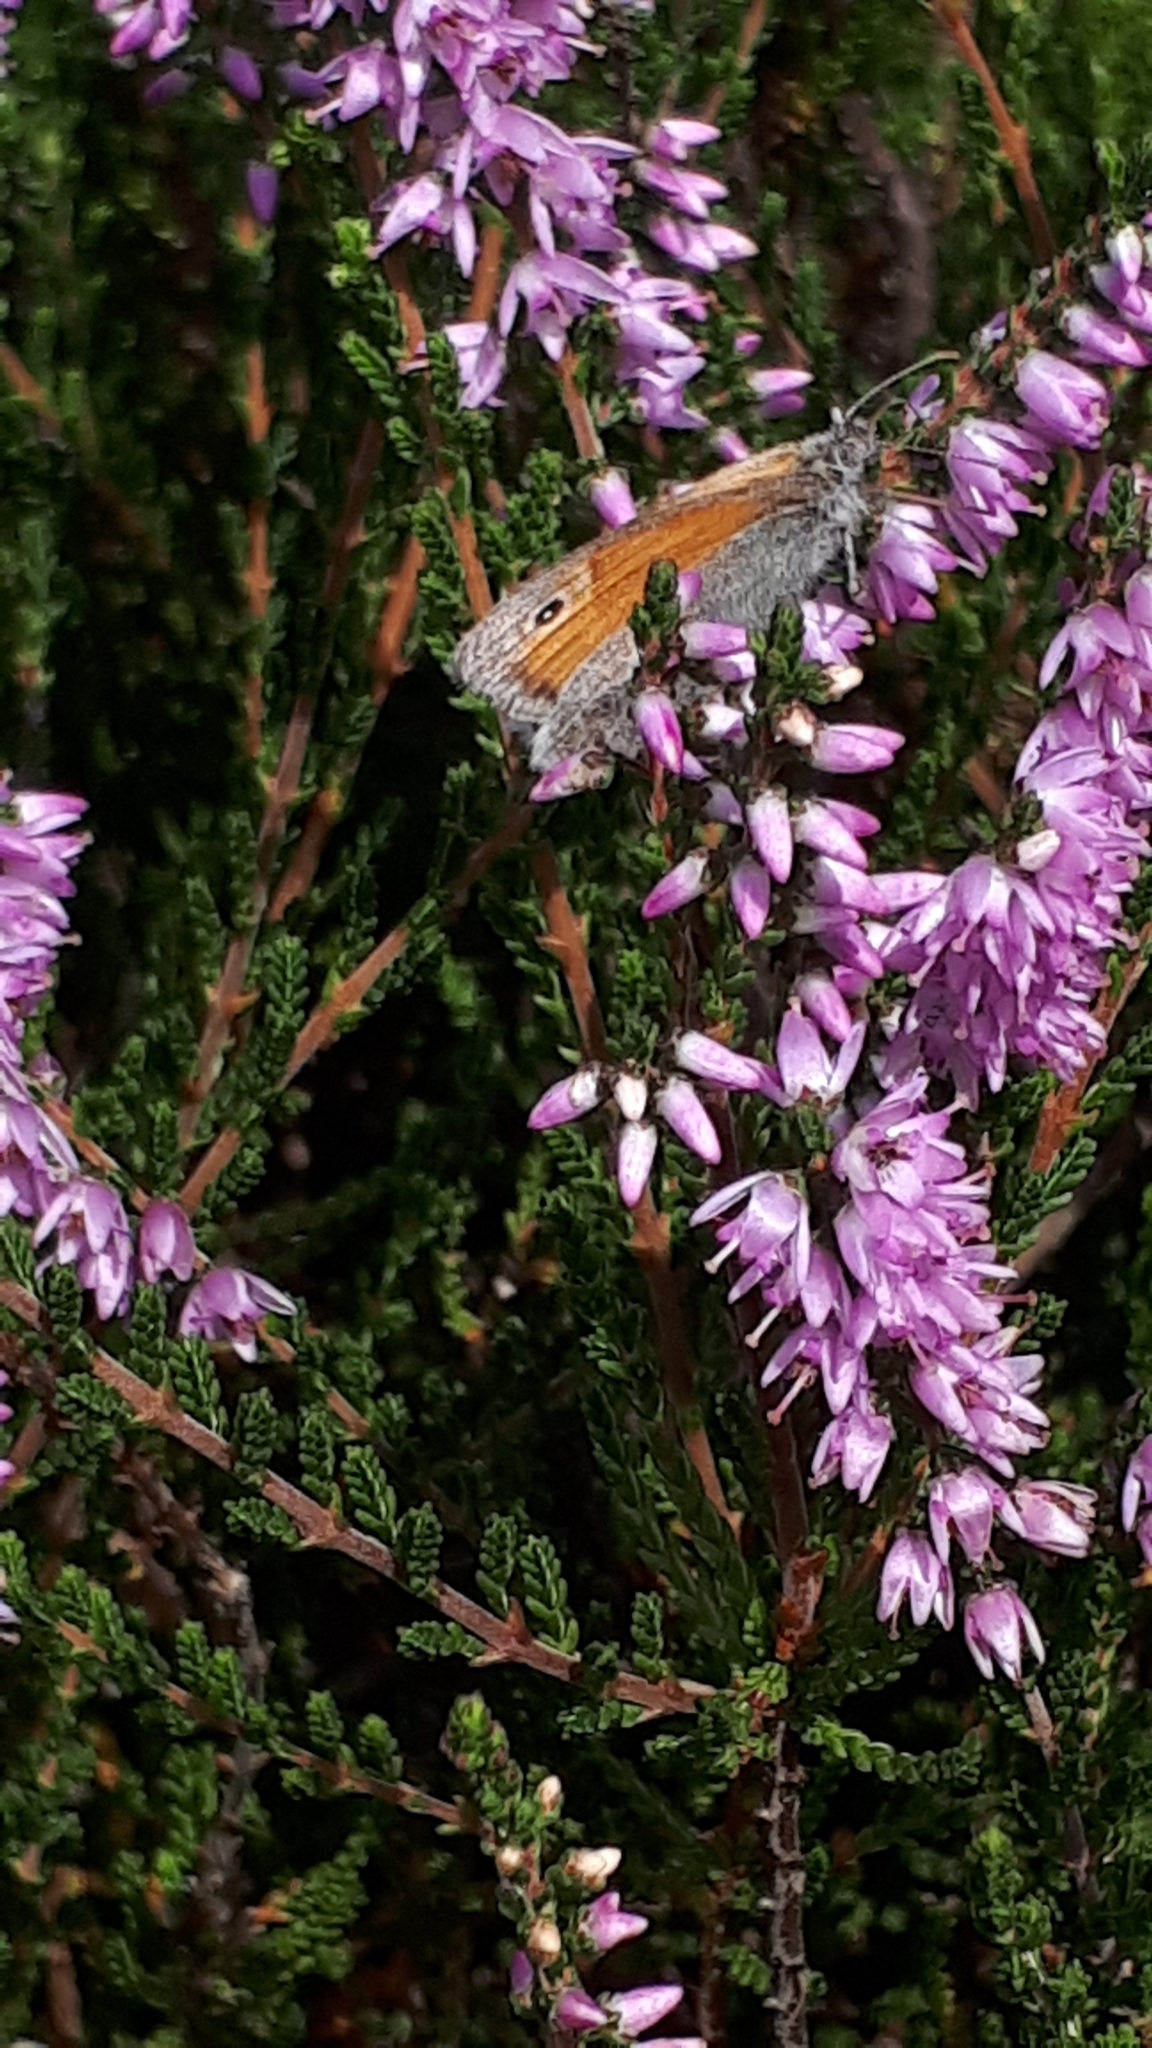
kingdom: Animalia
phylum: Arthropoda
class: Insecta
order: Lepidoptera
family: Nymphalidae
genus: Coenonympha
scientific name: Coenonympha pamphilus
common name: Small heath
